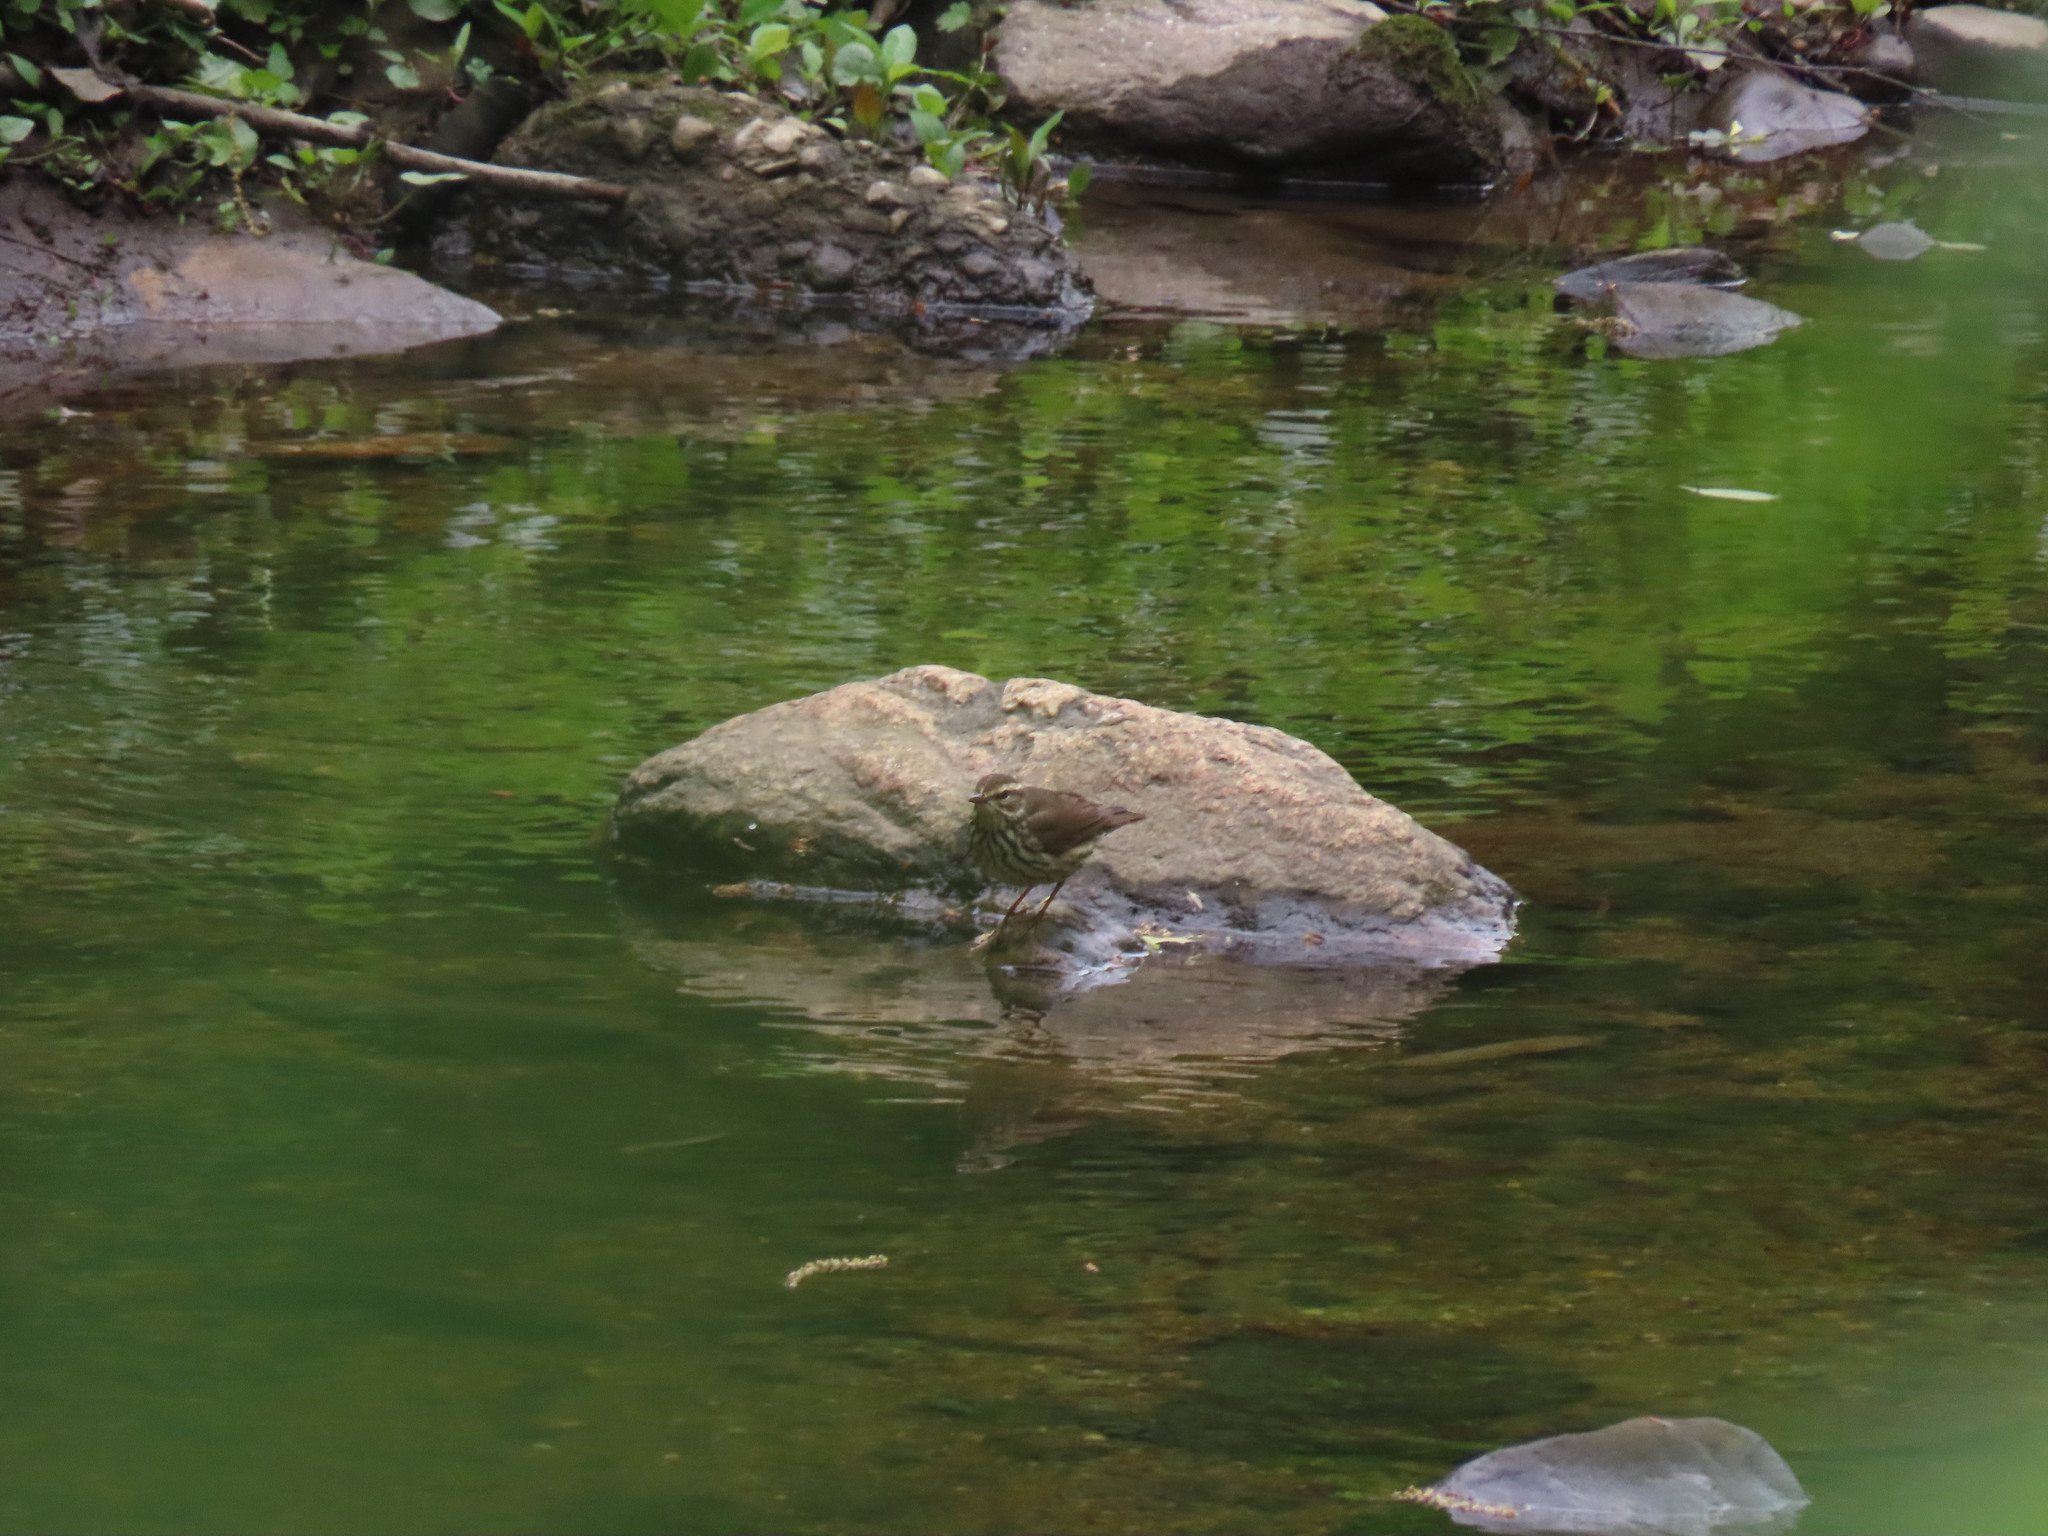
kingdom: Animalia
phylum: Chordata
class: Aves
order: Passeriformes
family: Parulidae
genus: Parkesia
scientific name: Parkesia noveboracensis
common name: Northern waterthrush
